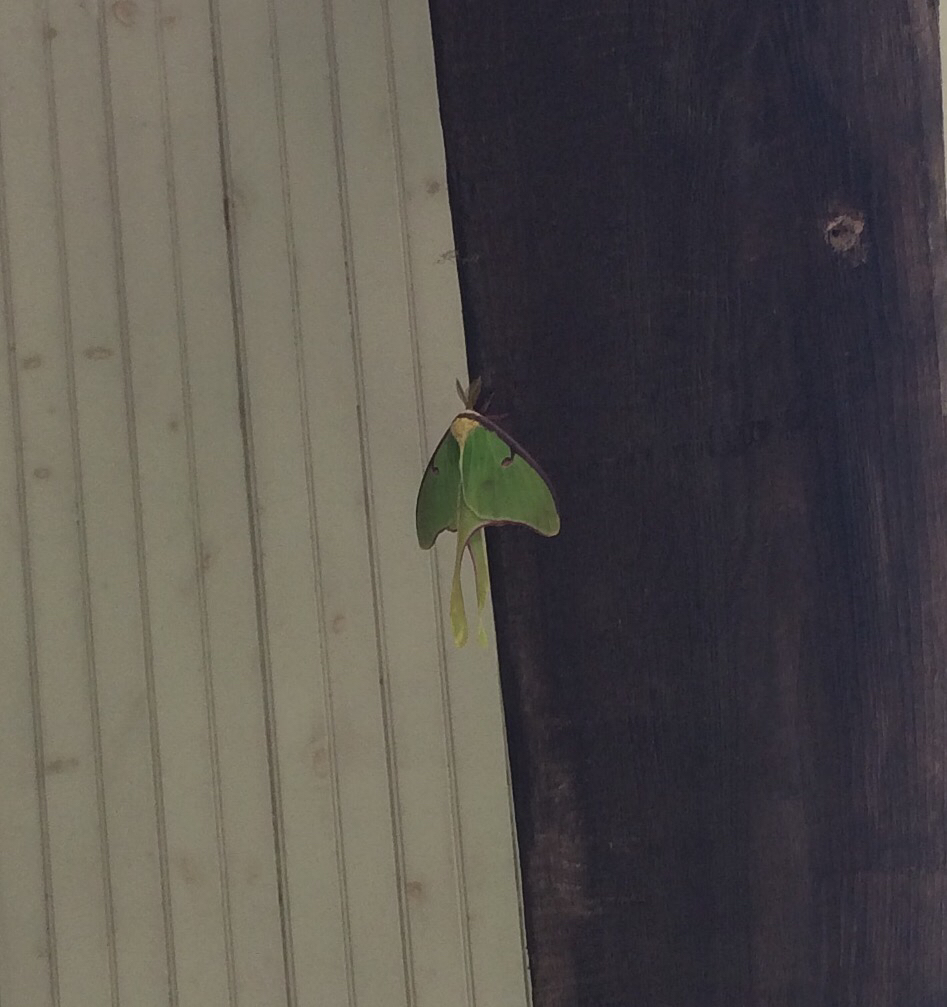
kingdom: Animalia
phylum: Arthropoda
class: Insecta
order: Lepidoptera
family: Saturniidae
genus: Actias
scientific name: Actias luna
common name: Luna moth
